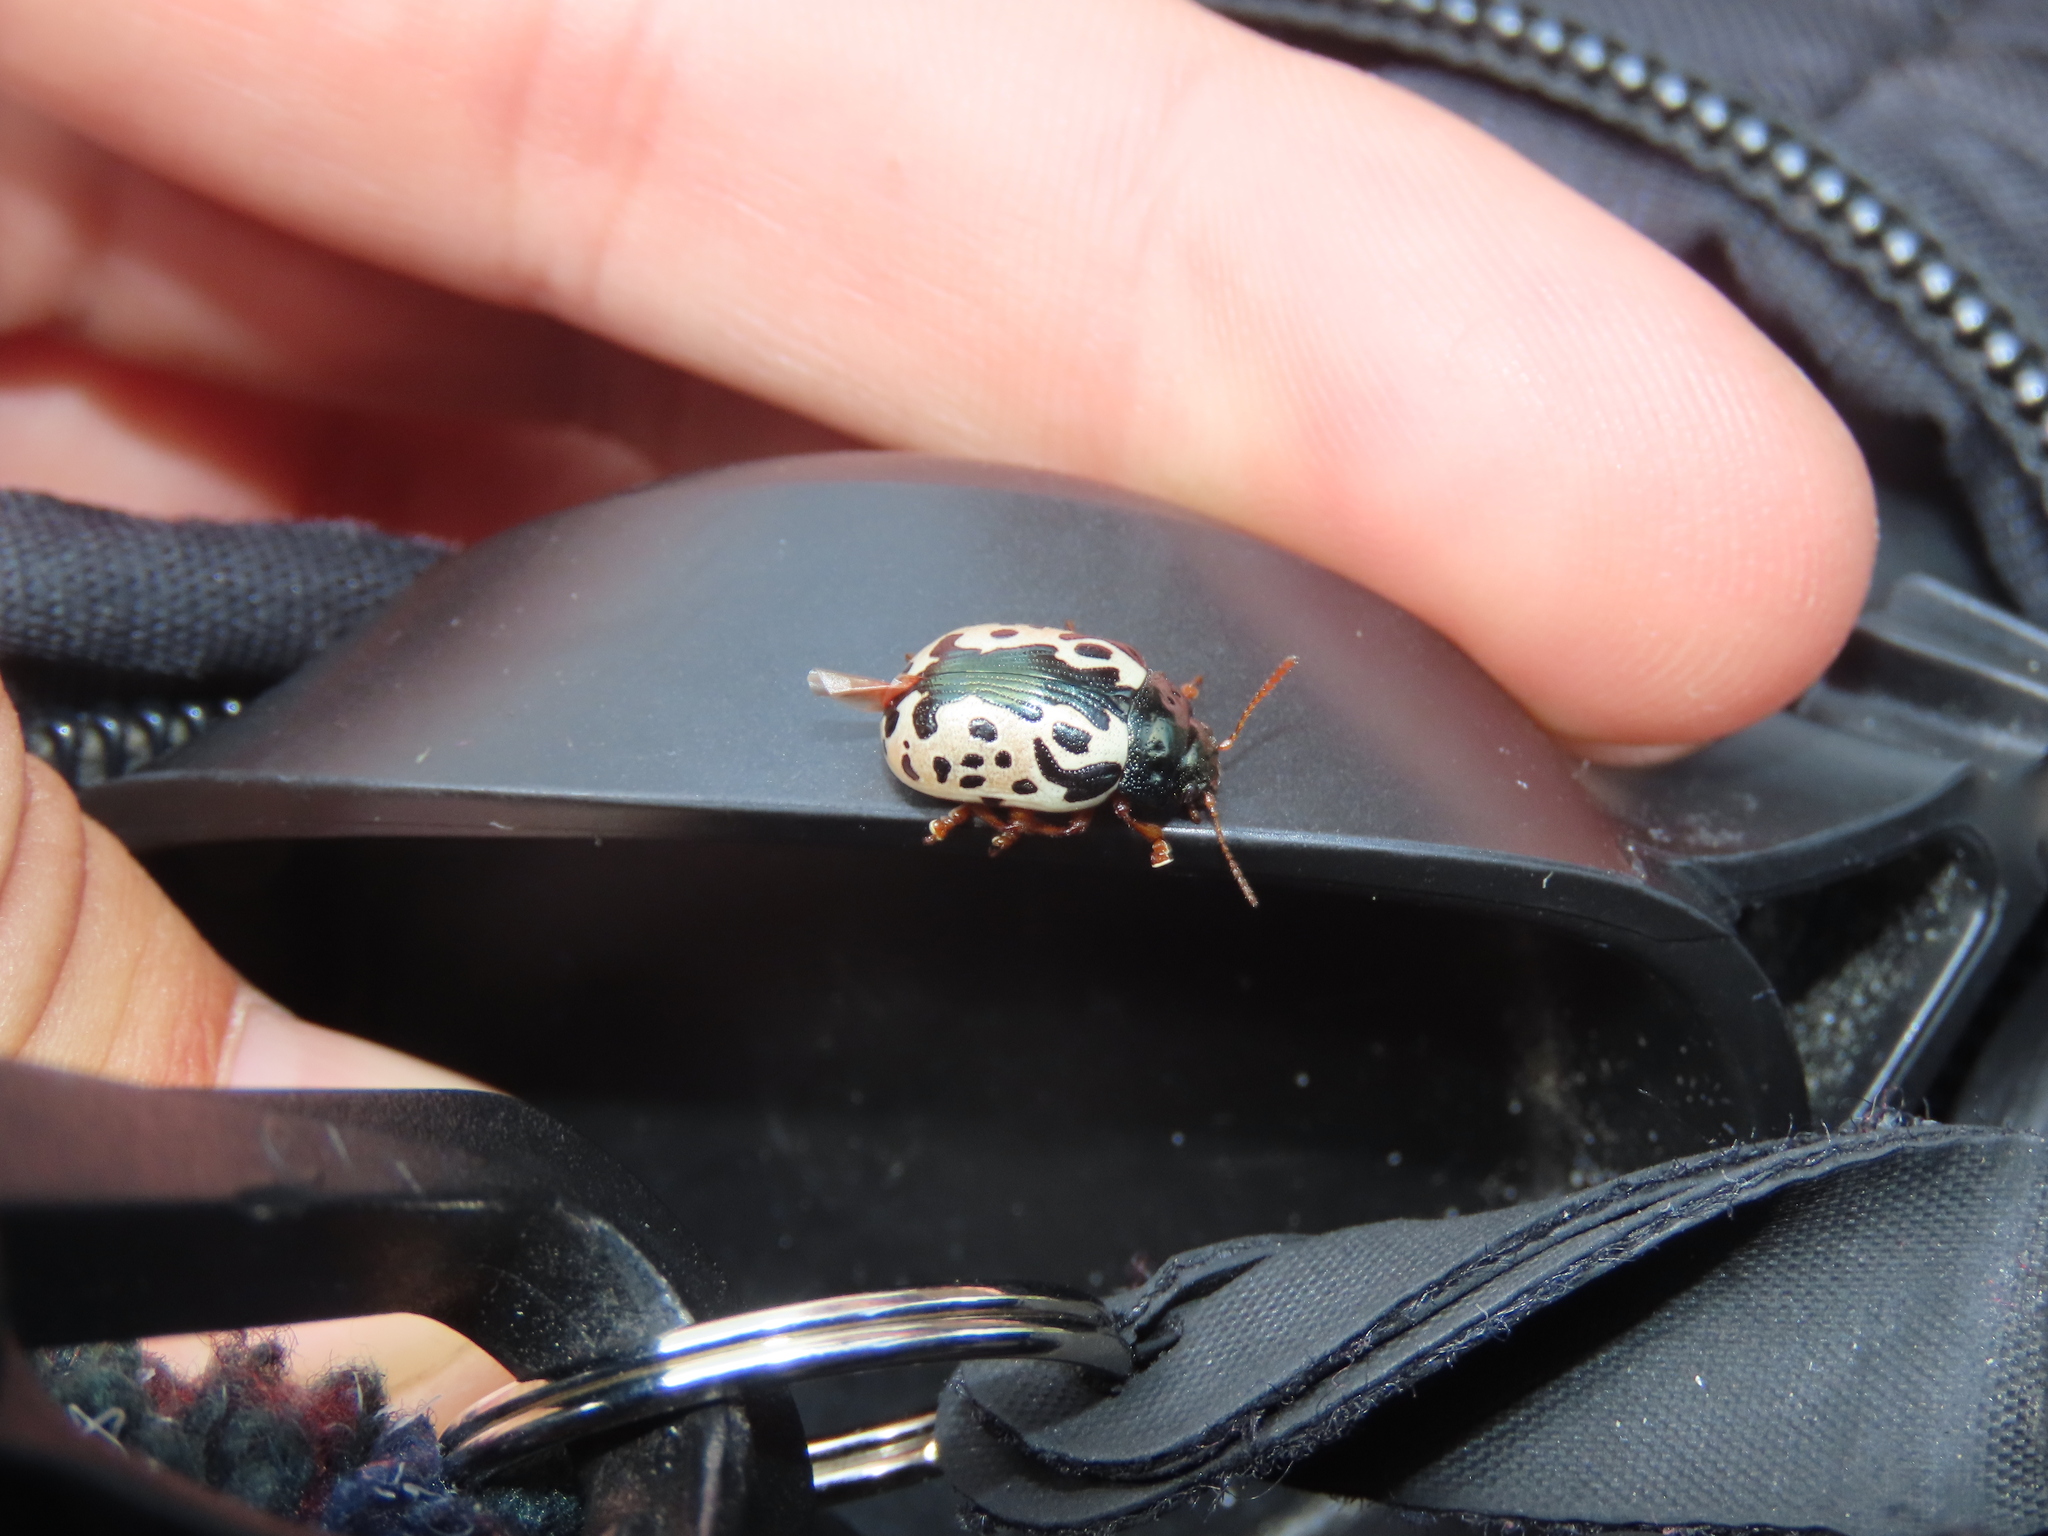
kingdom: Animalia
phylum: Arthropoda
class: Insecta
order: Coleoptera
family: Chrysomelidae
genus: Calligrapha
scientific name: Calligrapha ignota
